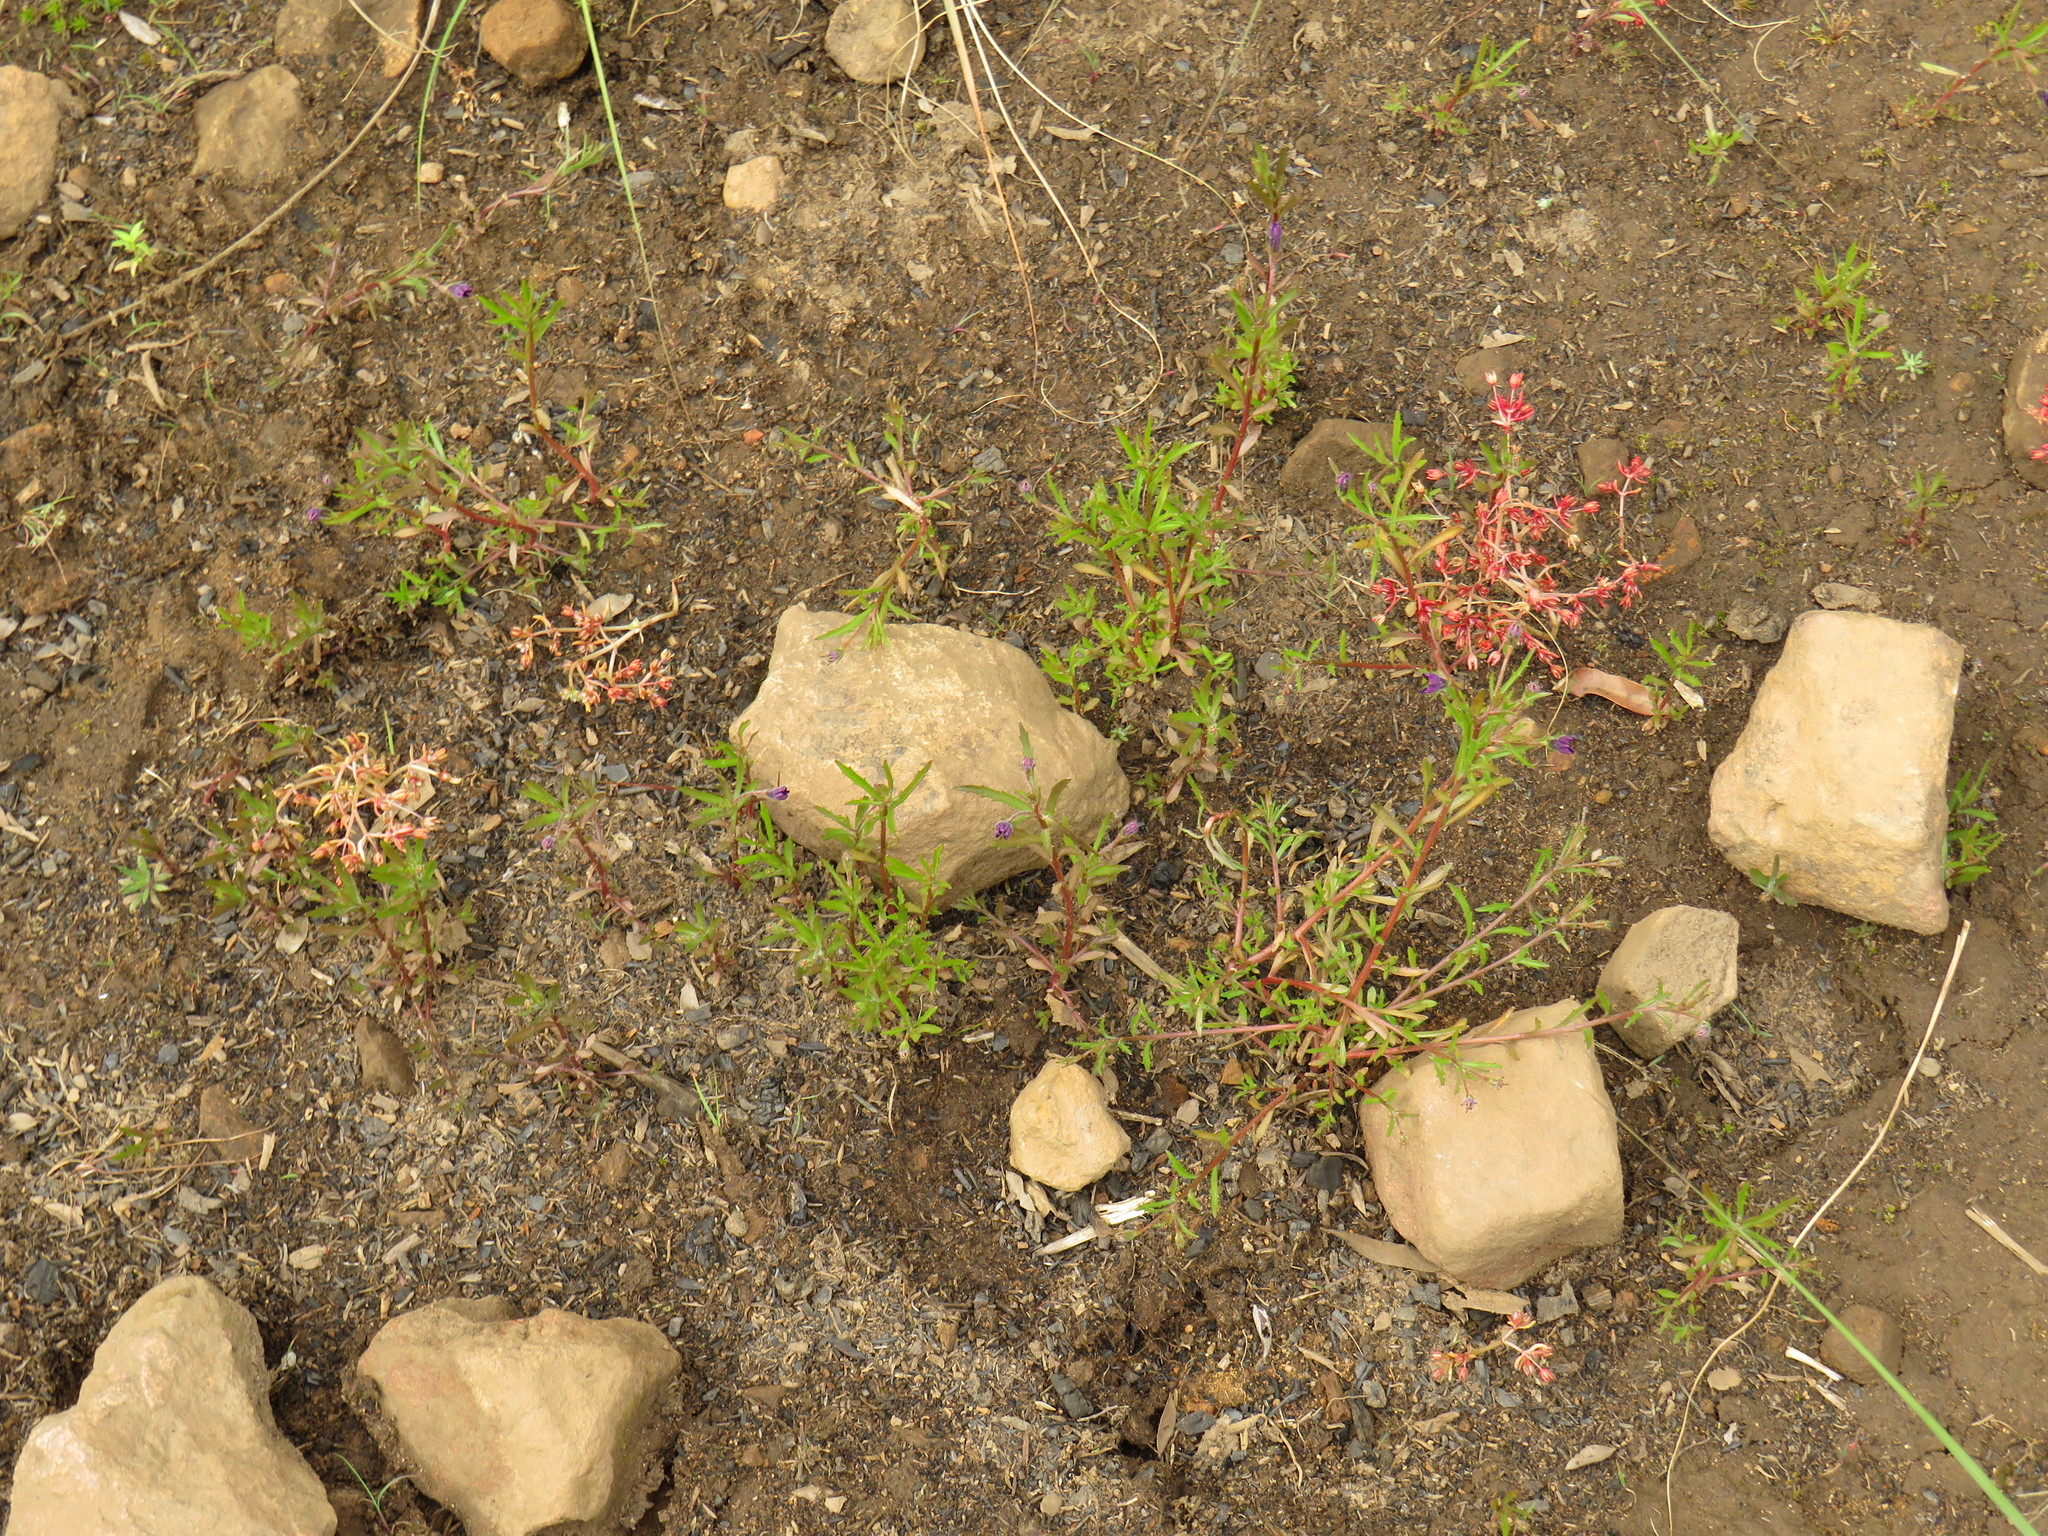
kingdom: Plantae
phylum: Tracheophyta
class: Magnoliopsida
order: Asterales
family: Campanulaceae
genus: Monopsis
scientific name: Monopsis debilis
